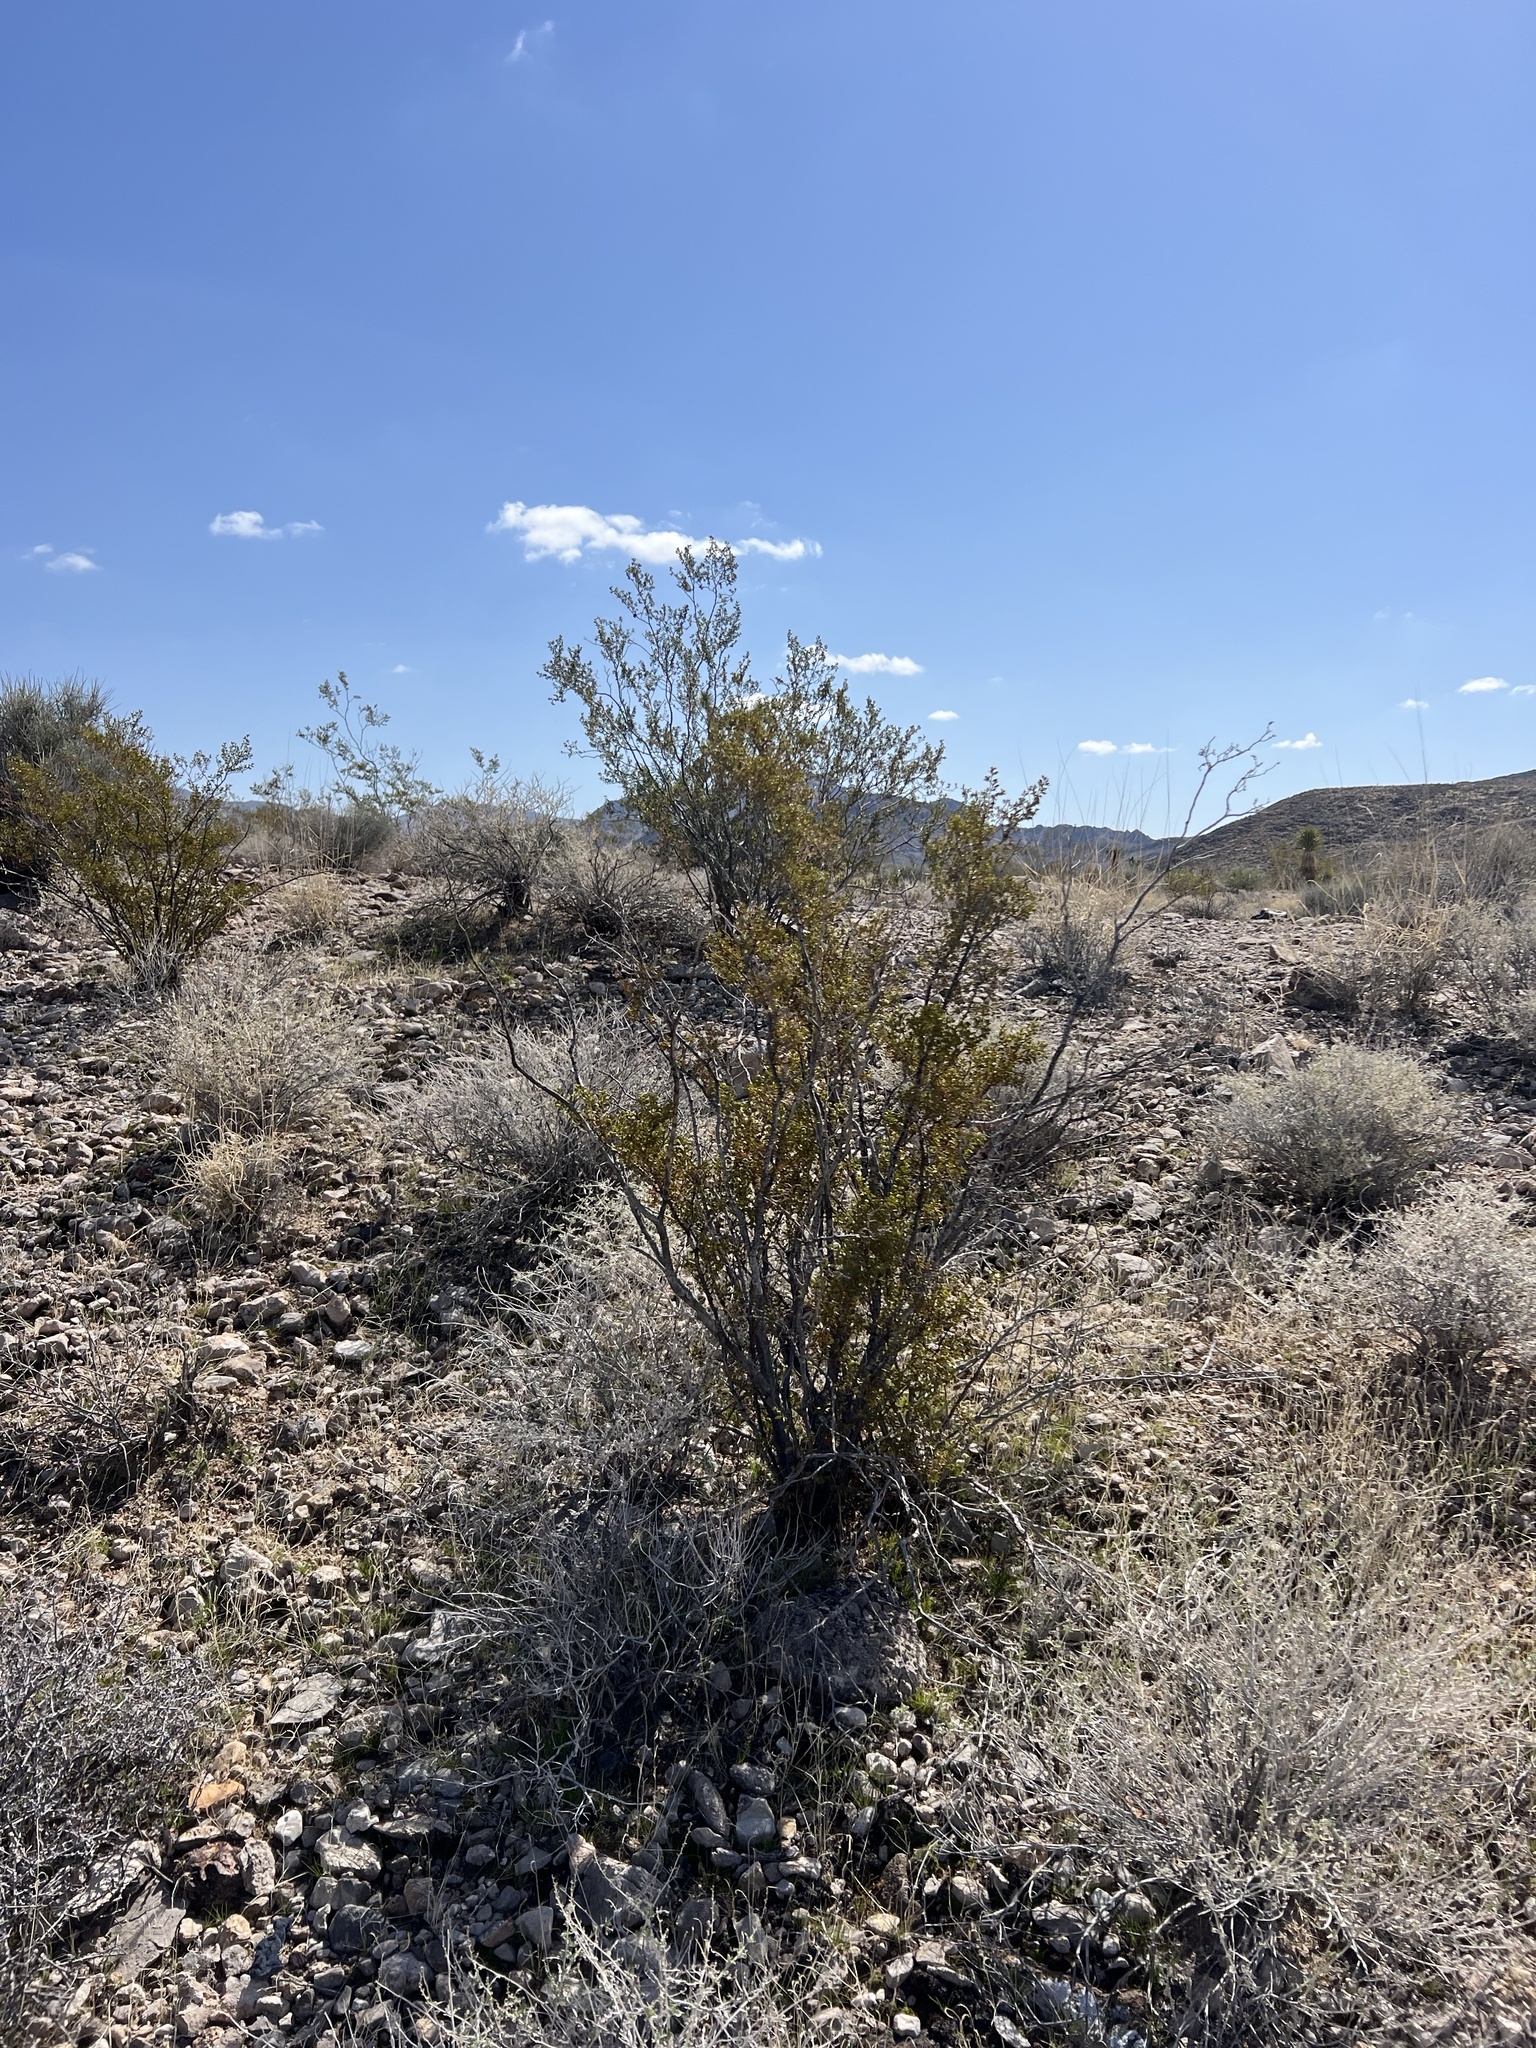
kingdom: Plantae
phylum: Tracheophyta
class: Magnoliopsida
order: Zygophyllales
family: Zygophyllaceae
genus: Larrea
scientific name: Larrea tridentata
